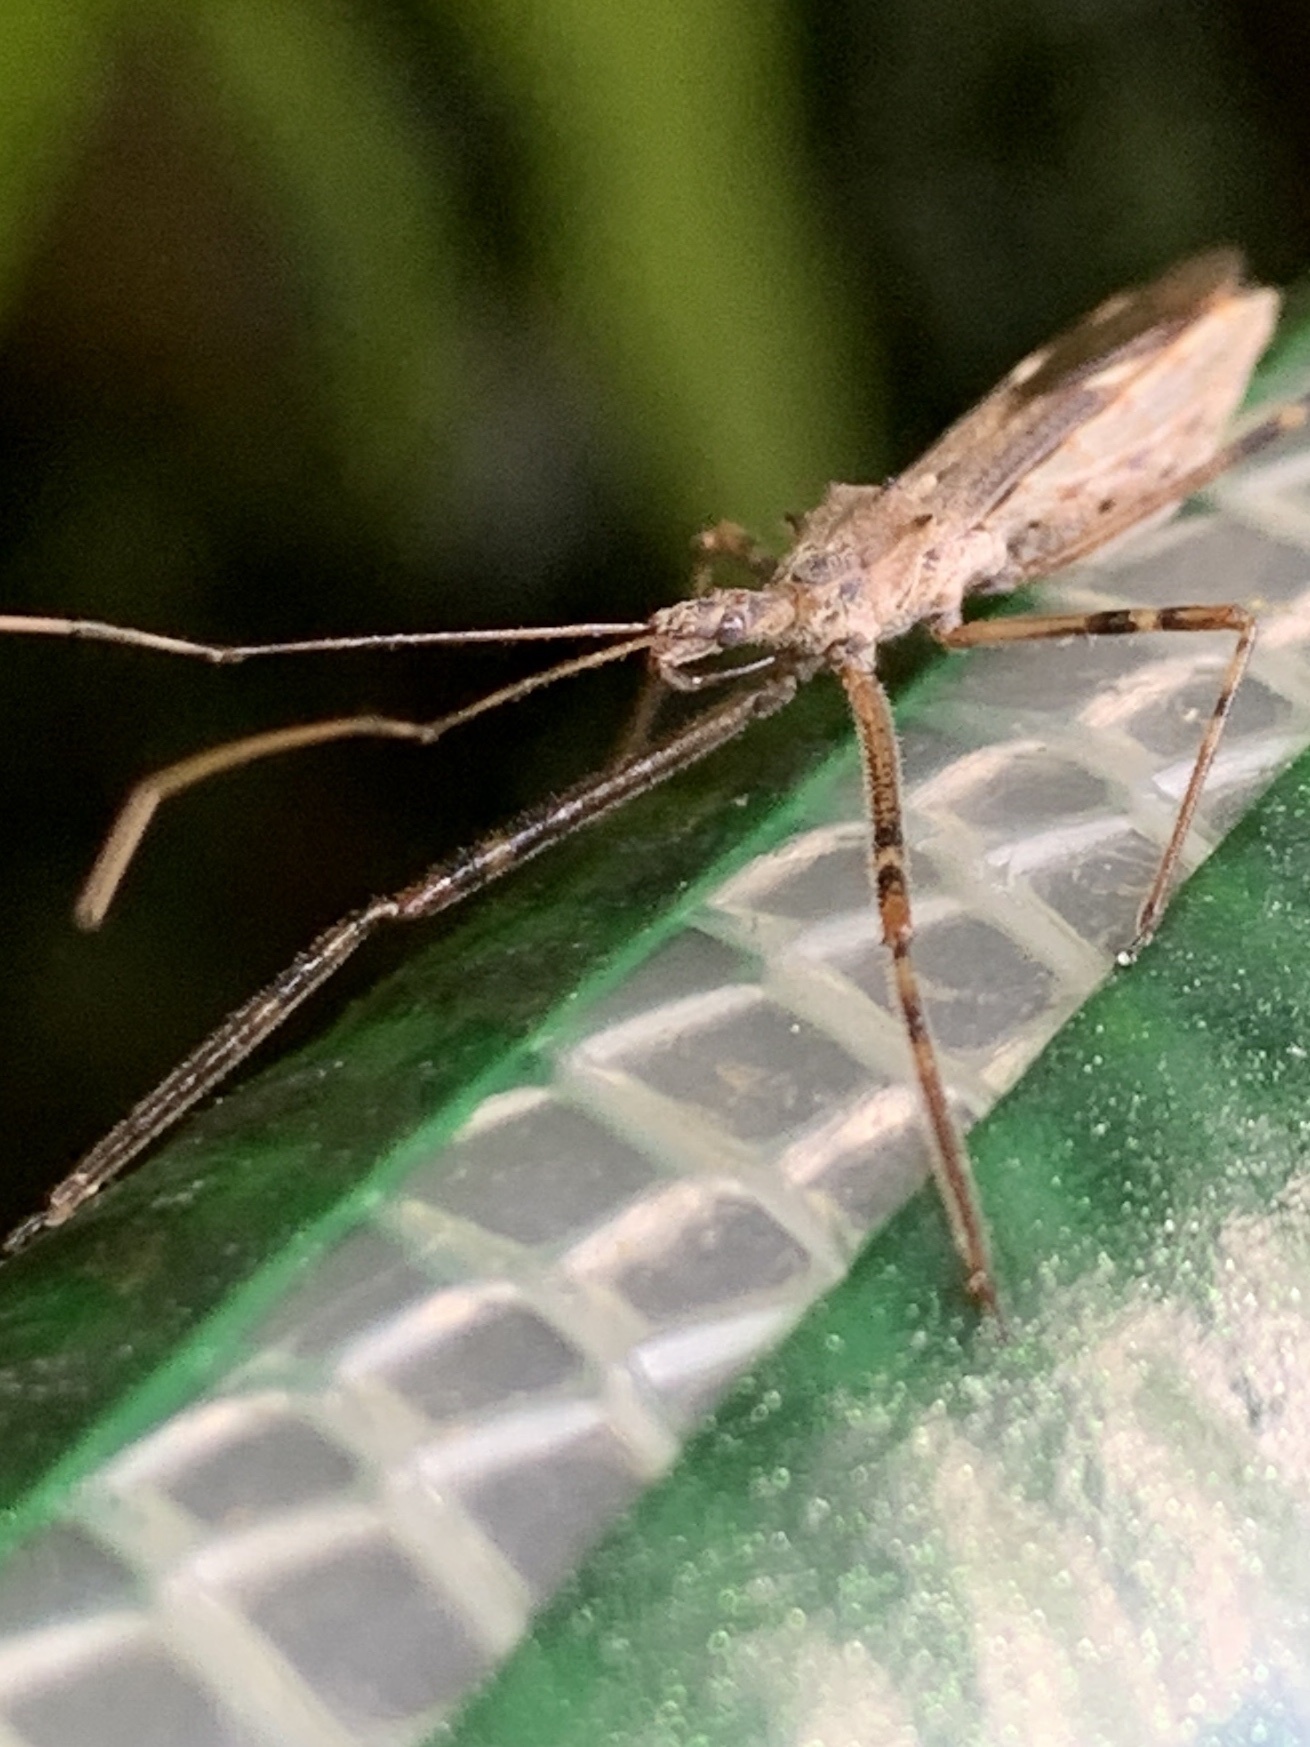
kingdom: Animalia
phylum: Arthropoda
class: Insecta
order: Hemiptera
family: Reduviidae
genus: Zelus
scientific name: Zelus tetracanthus
